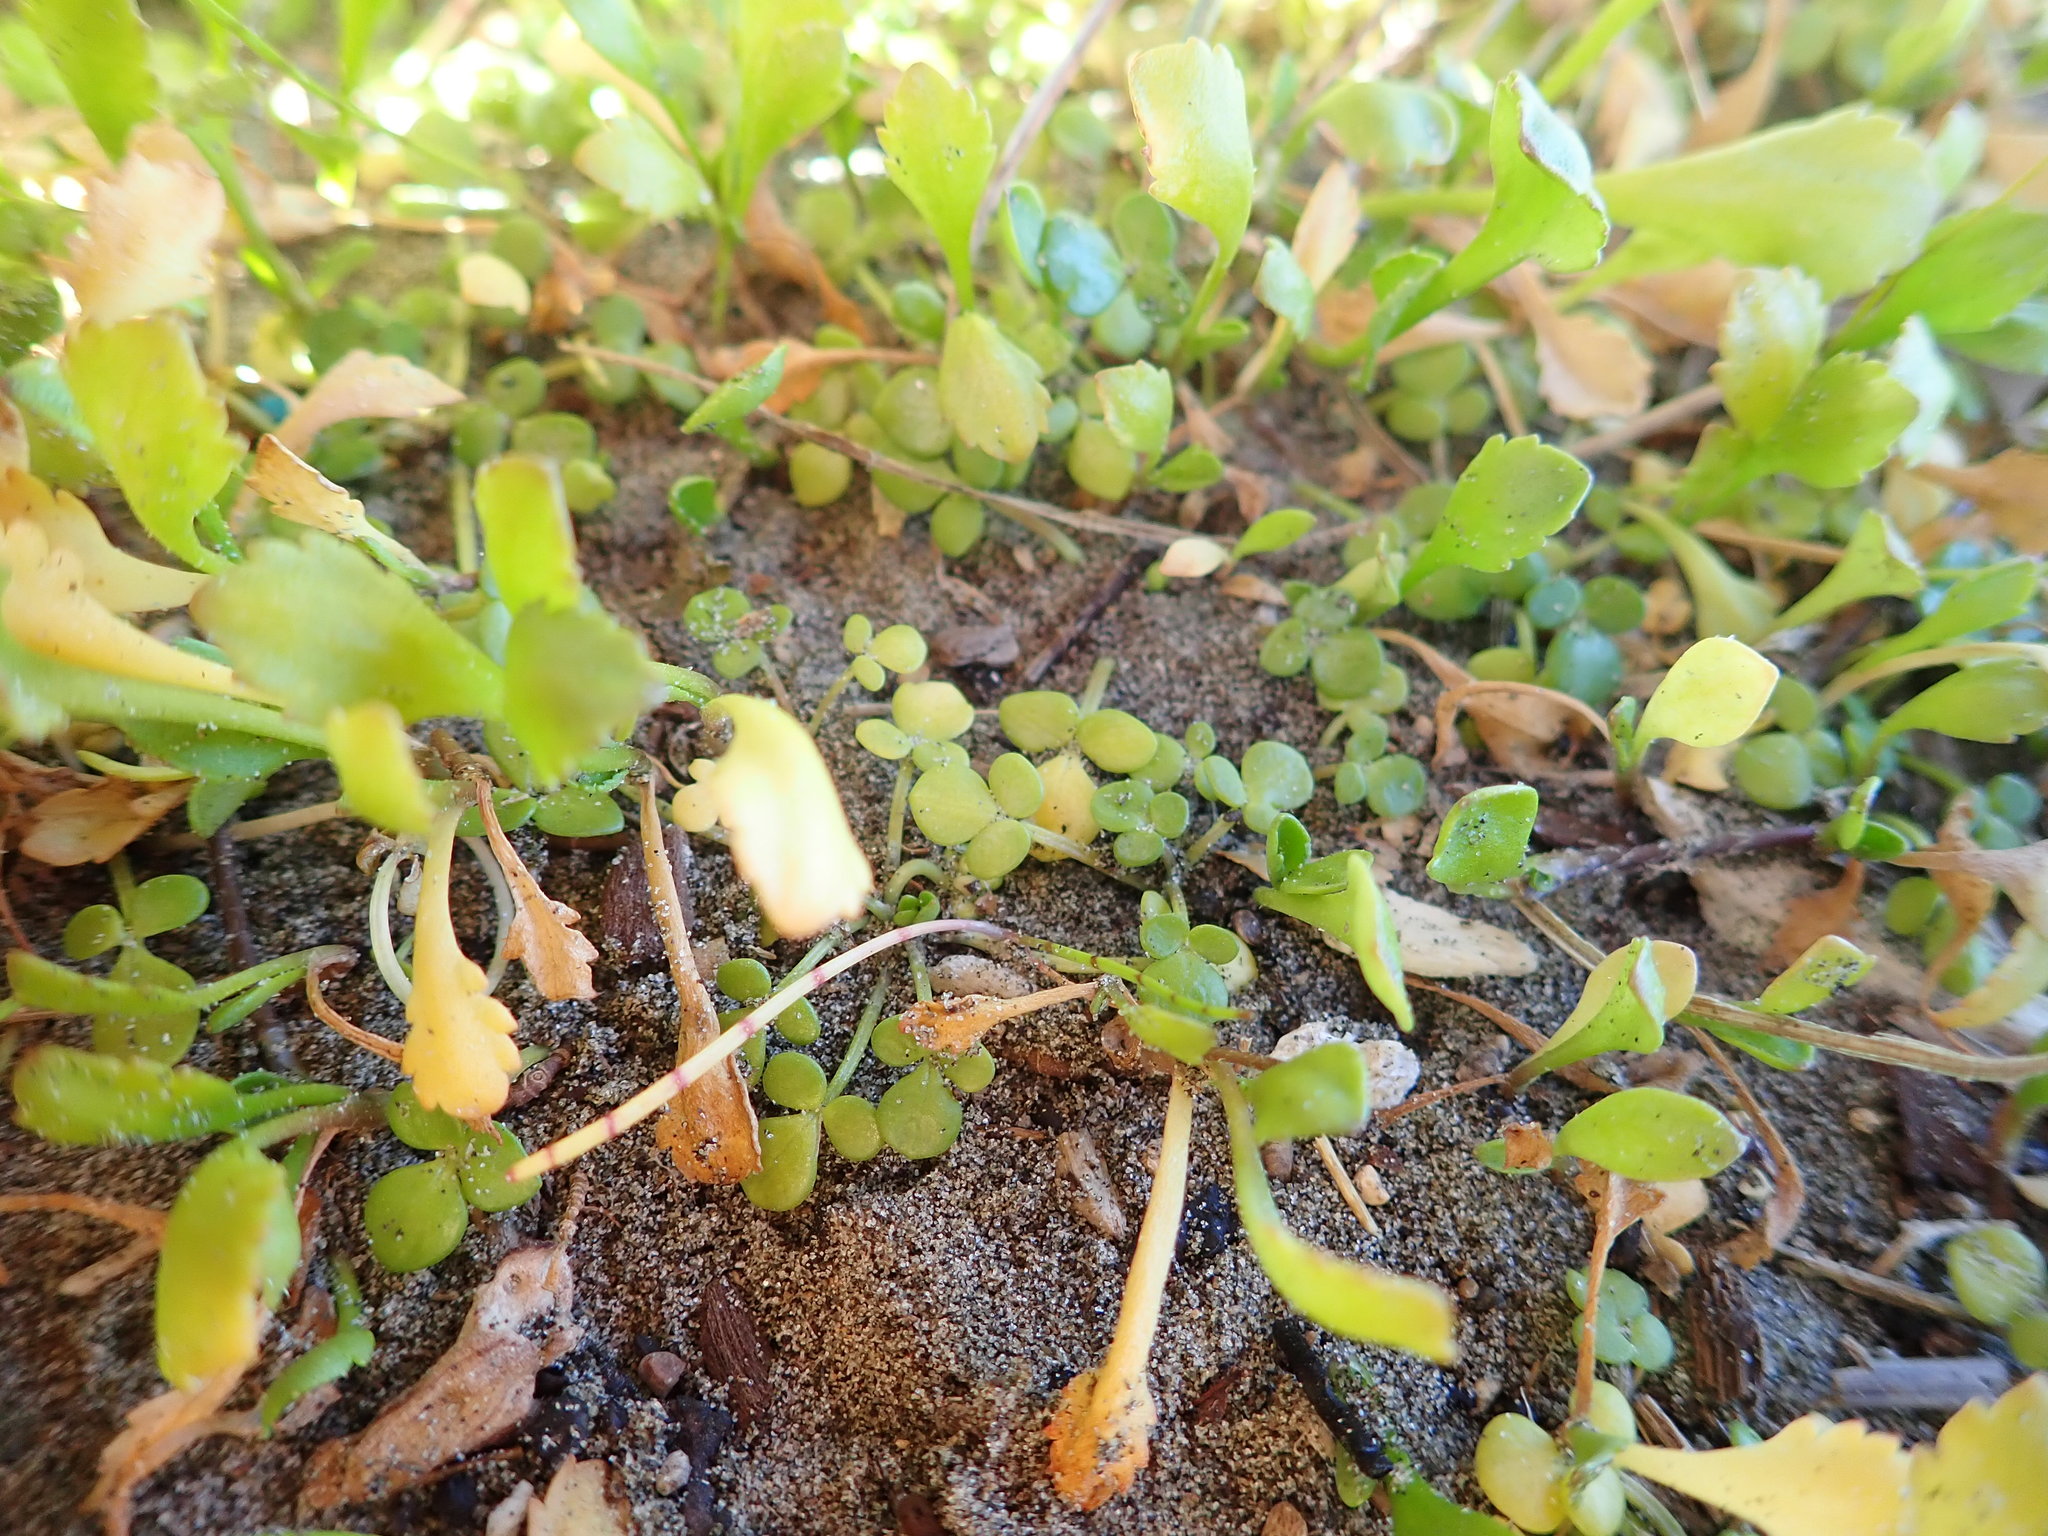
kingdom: Plantae
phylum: Tracheophyta
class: Magnoliopsida
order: Ranunculales
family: Ranunculaceae
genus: Ranunculus
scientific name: Ranunculus acaulis
